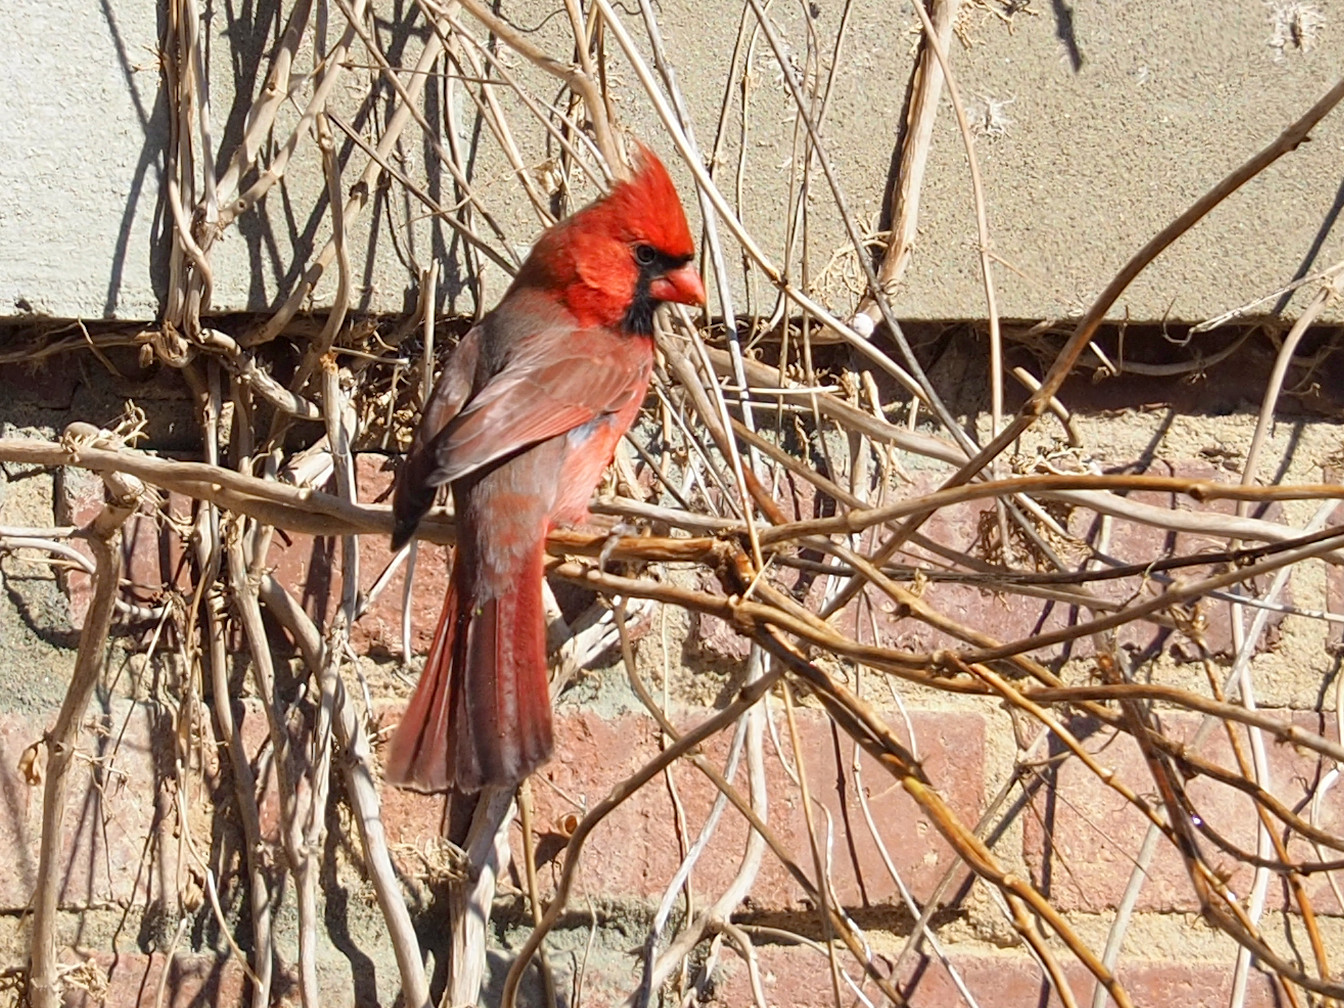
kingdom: Animalia
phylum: Chordata
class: Aves
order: Passeriformes
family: Cardinalidae
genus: Cardinalis
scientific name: Cardinalis cardinalis
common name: Northern cardinal
